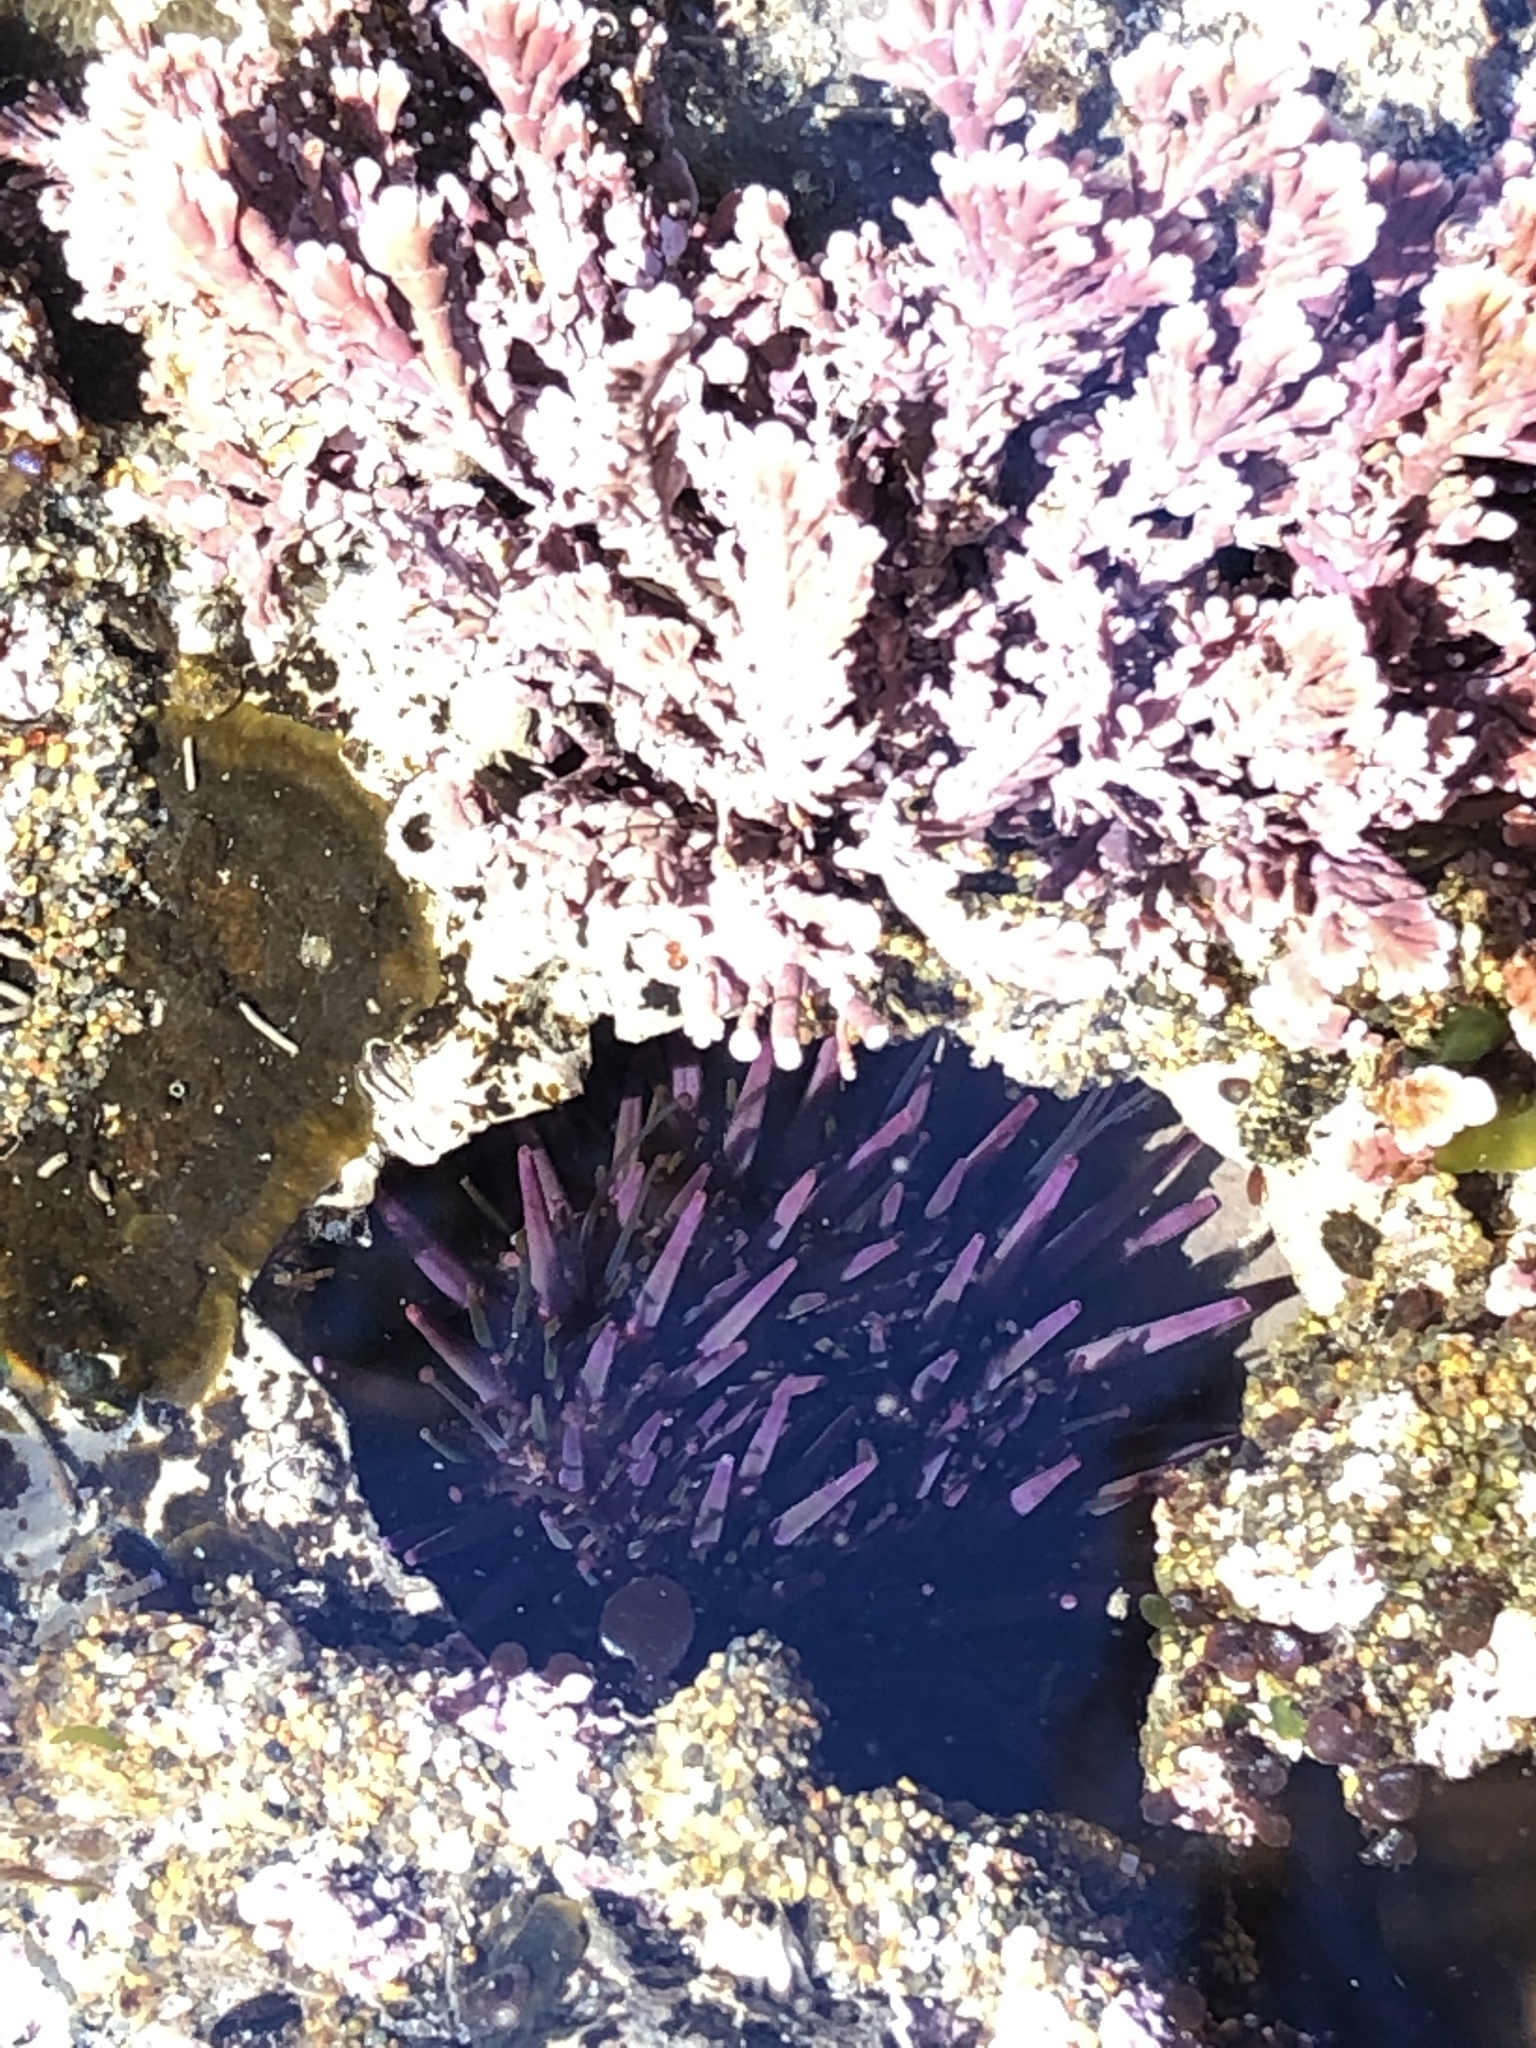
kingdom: Animalia
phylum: Echinodermata
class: Echinoidea
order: Camarodonta
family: Strongylocentrotidae
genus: Strongylocentrotus
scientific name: Strongylocentrotus purpuratus
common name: Purple sea urchin
